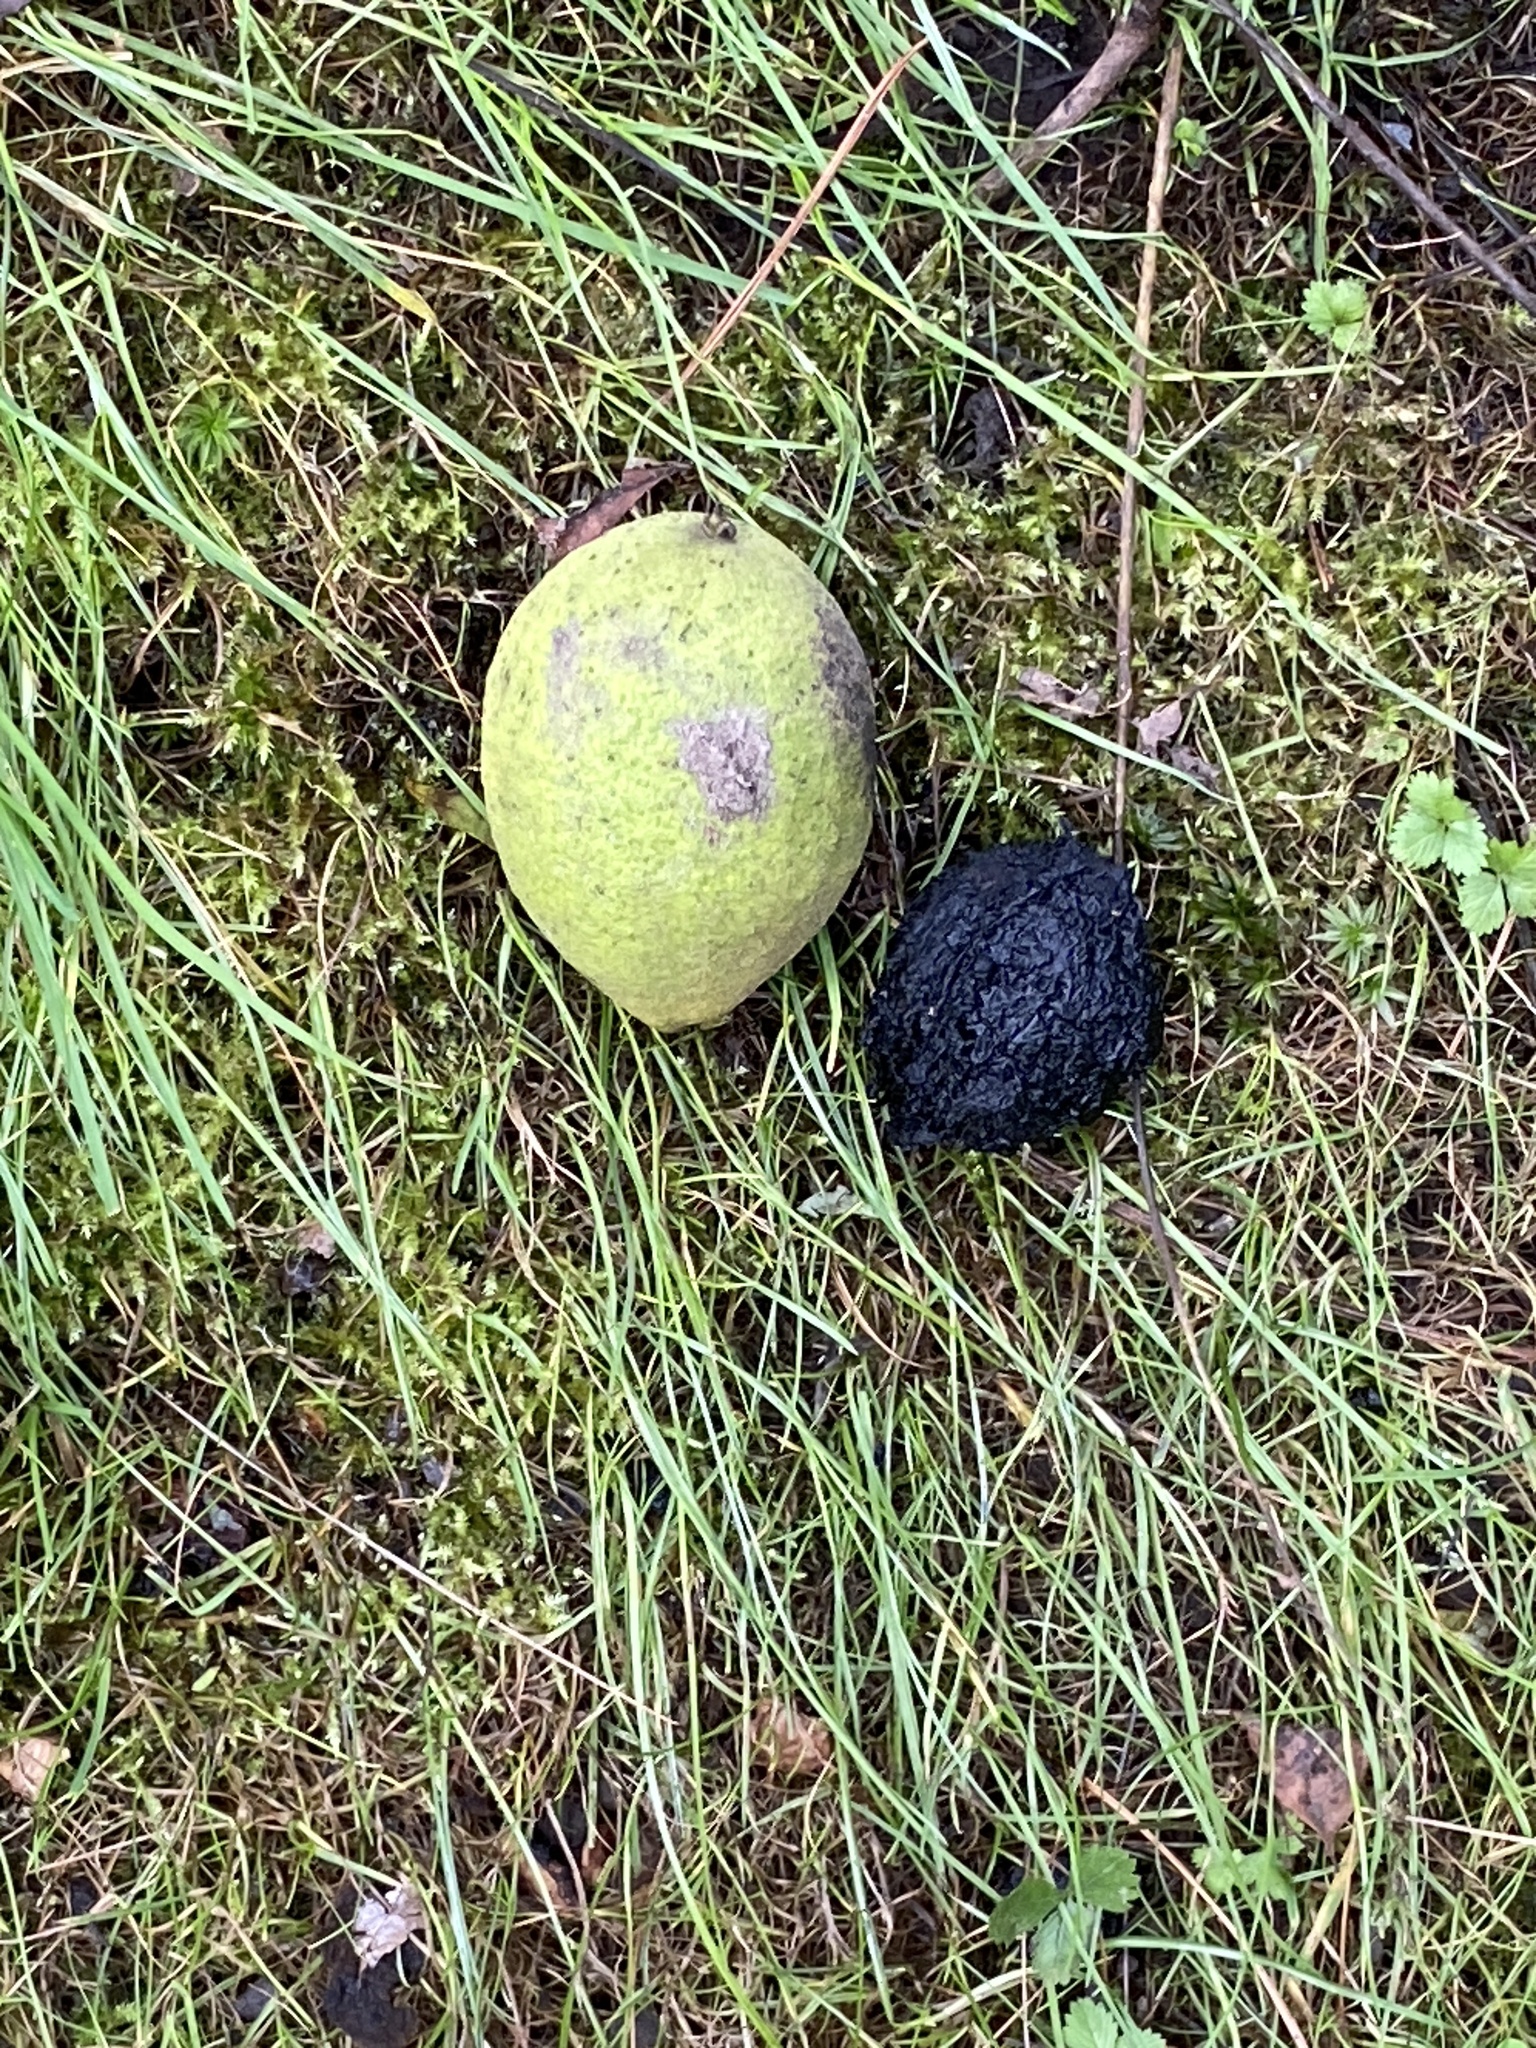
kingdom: Plantae
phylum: Tracheophyta
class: Magnoliopsida
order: Fagales
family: Juglandaceae
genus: Juglans
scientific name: Juglans nigra
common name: Black walnut
